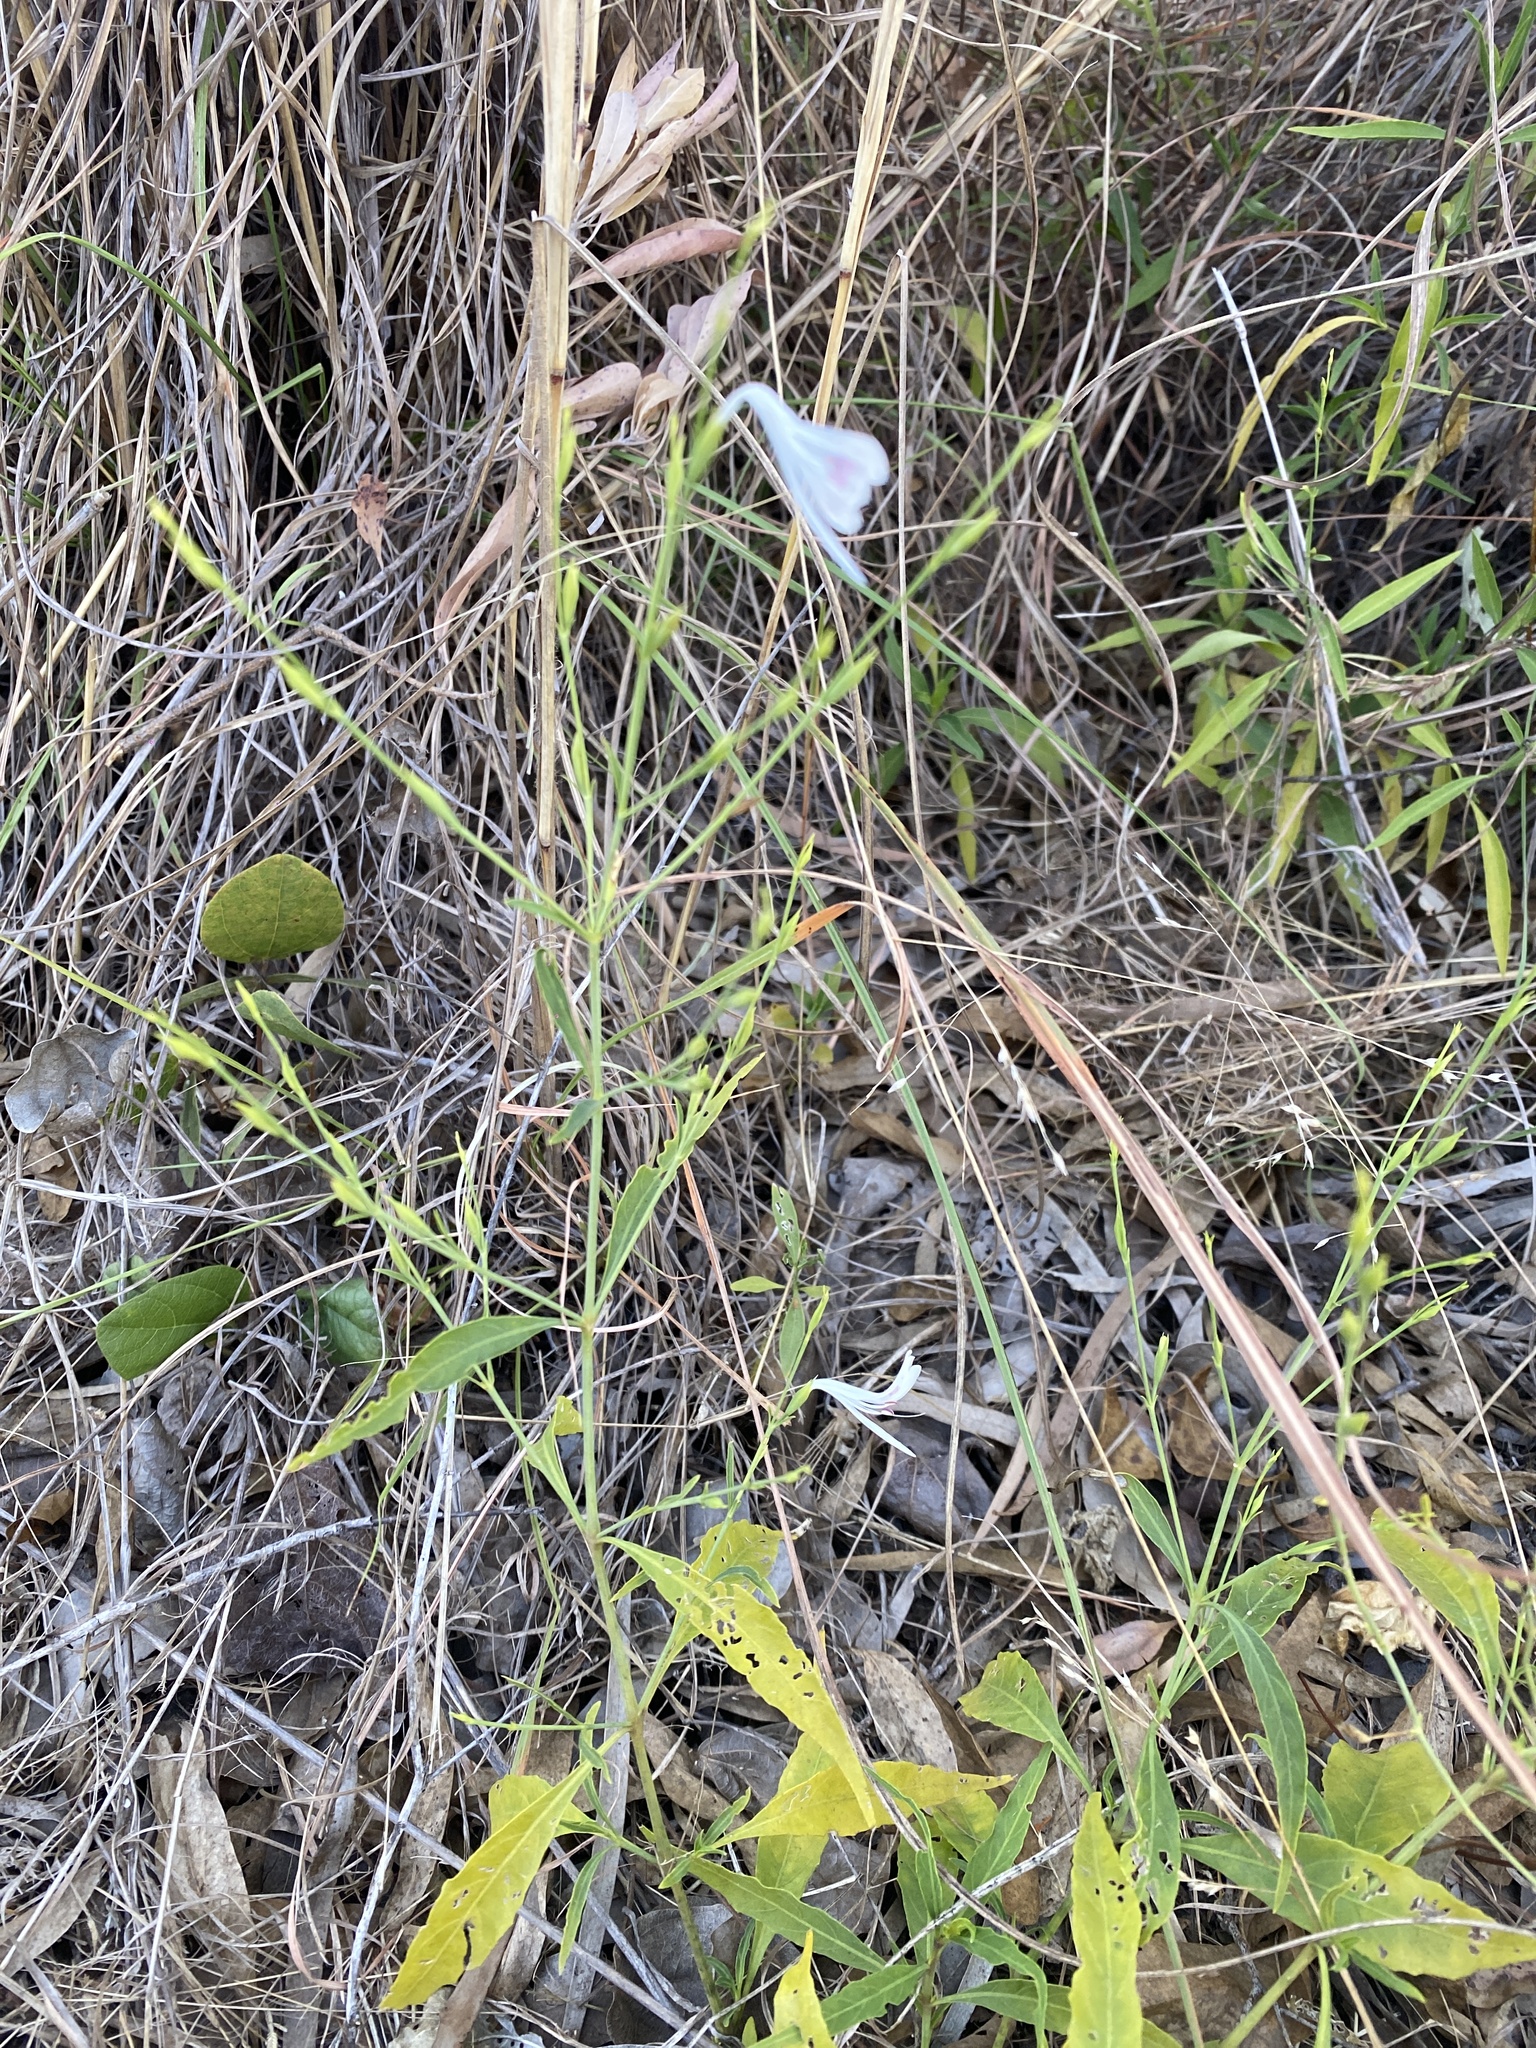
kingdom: Plantae
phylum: Tracheophyta
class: Magnoliopsida
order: Lamiales
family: Acanthaceae
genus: Hypoestes
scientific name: Hypoestes sparsiflora
